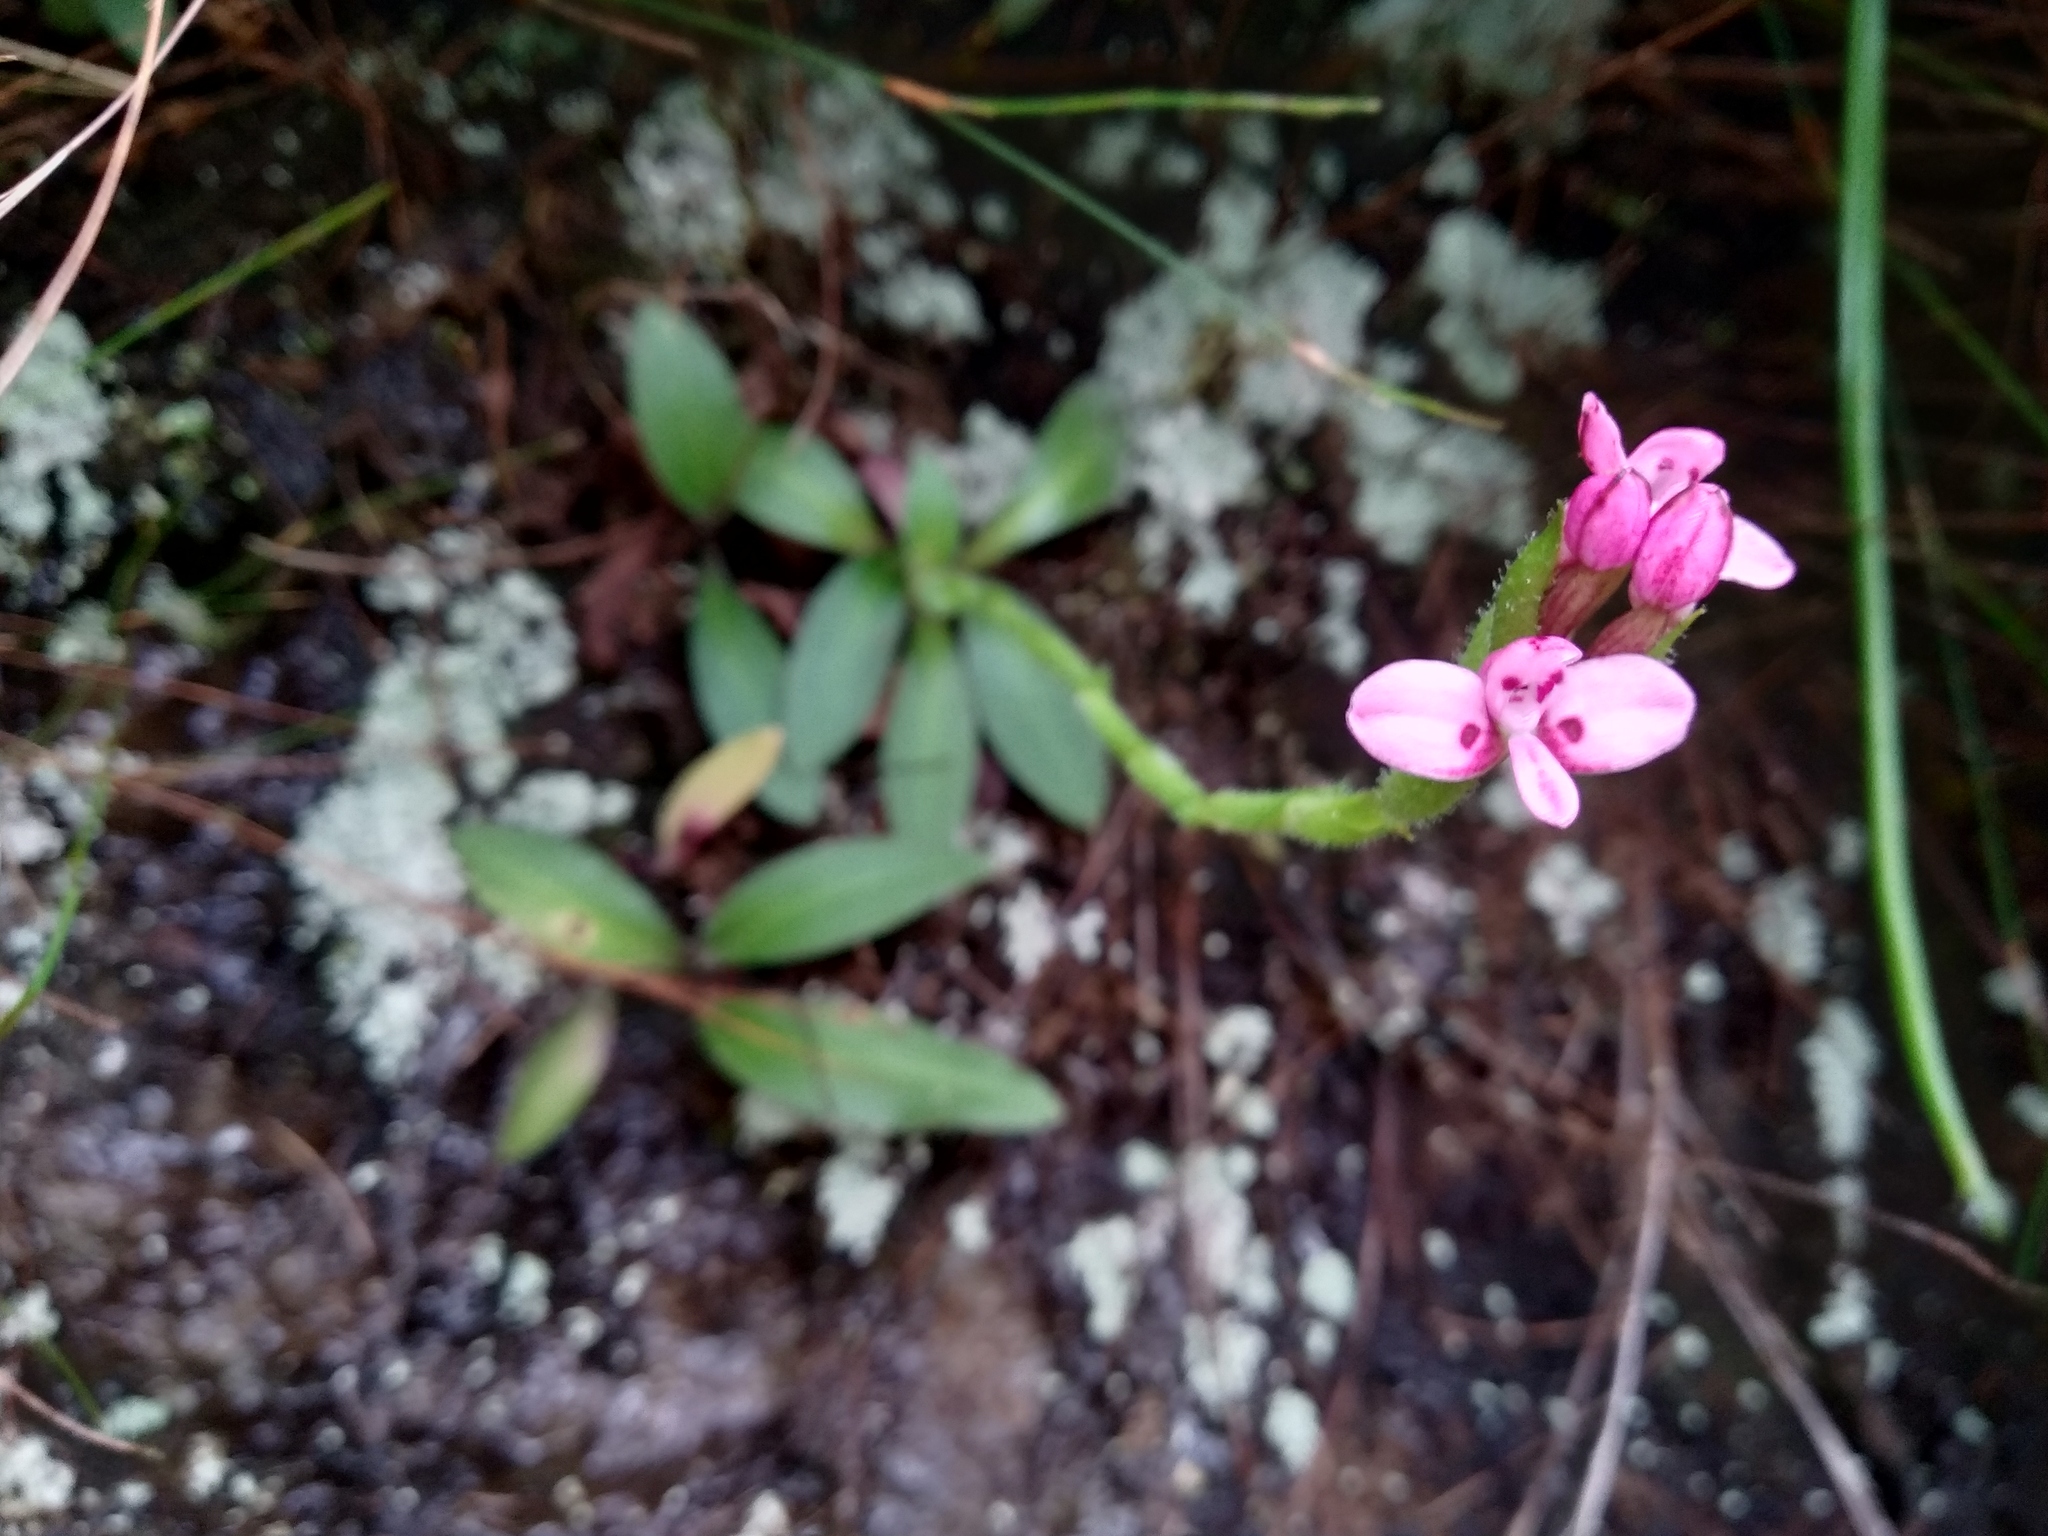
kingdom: Plantae
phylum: Tracheophyta
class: Liliopsida
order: Asparagales
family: Orchidaceae
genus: Disa
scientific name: Disa glandulosa
